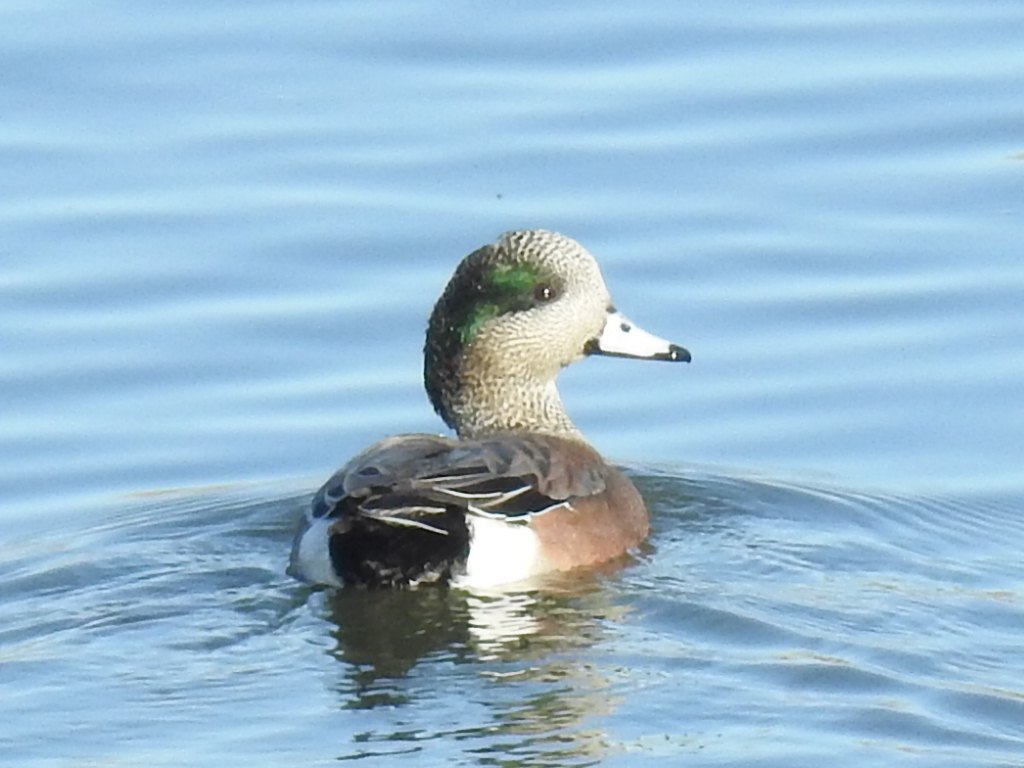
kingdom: Animalia
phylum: Chordata
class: Aves
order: Anseriformes
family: Anatidae
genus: Mareca
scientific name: Mareca americana
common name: American wigeon
